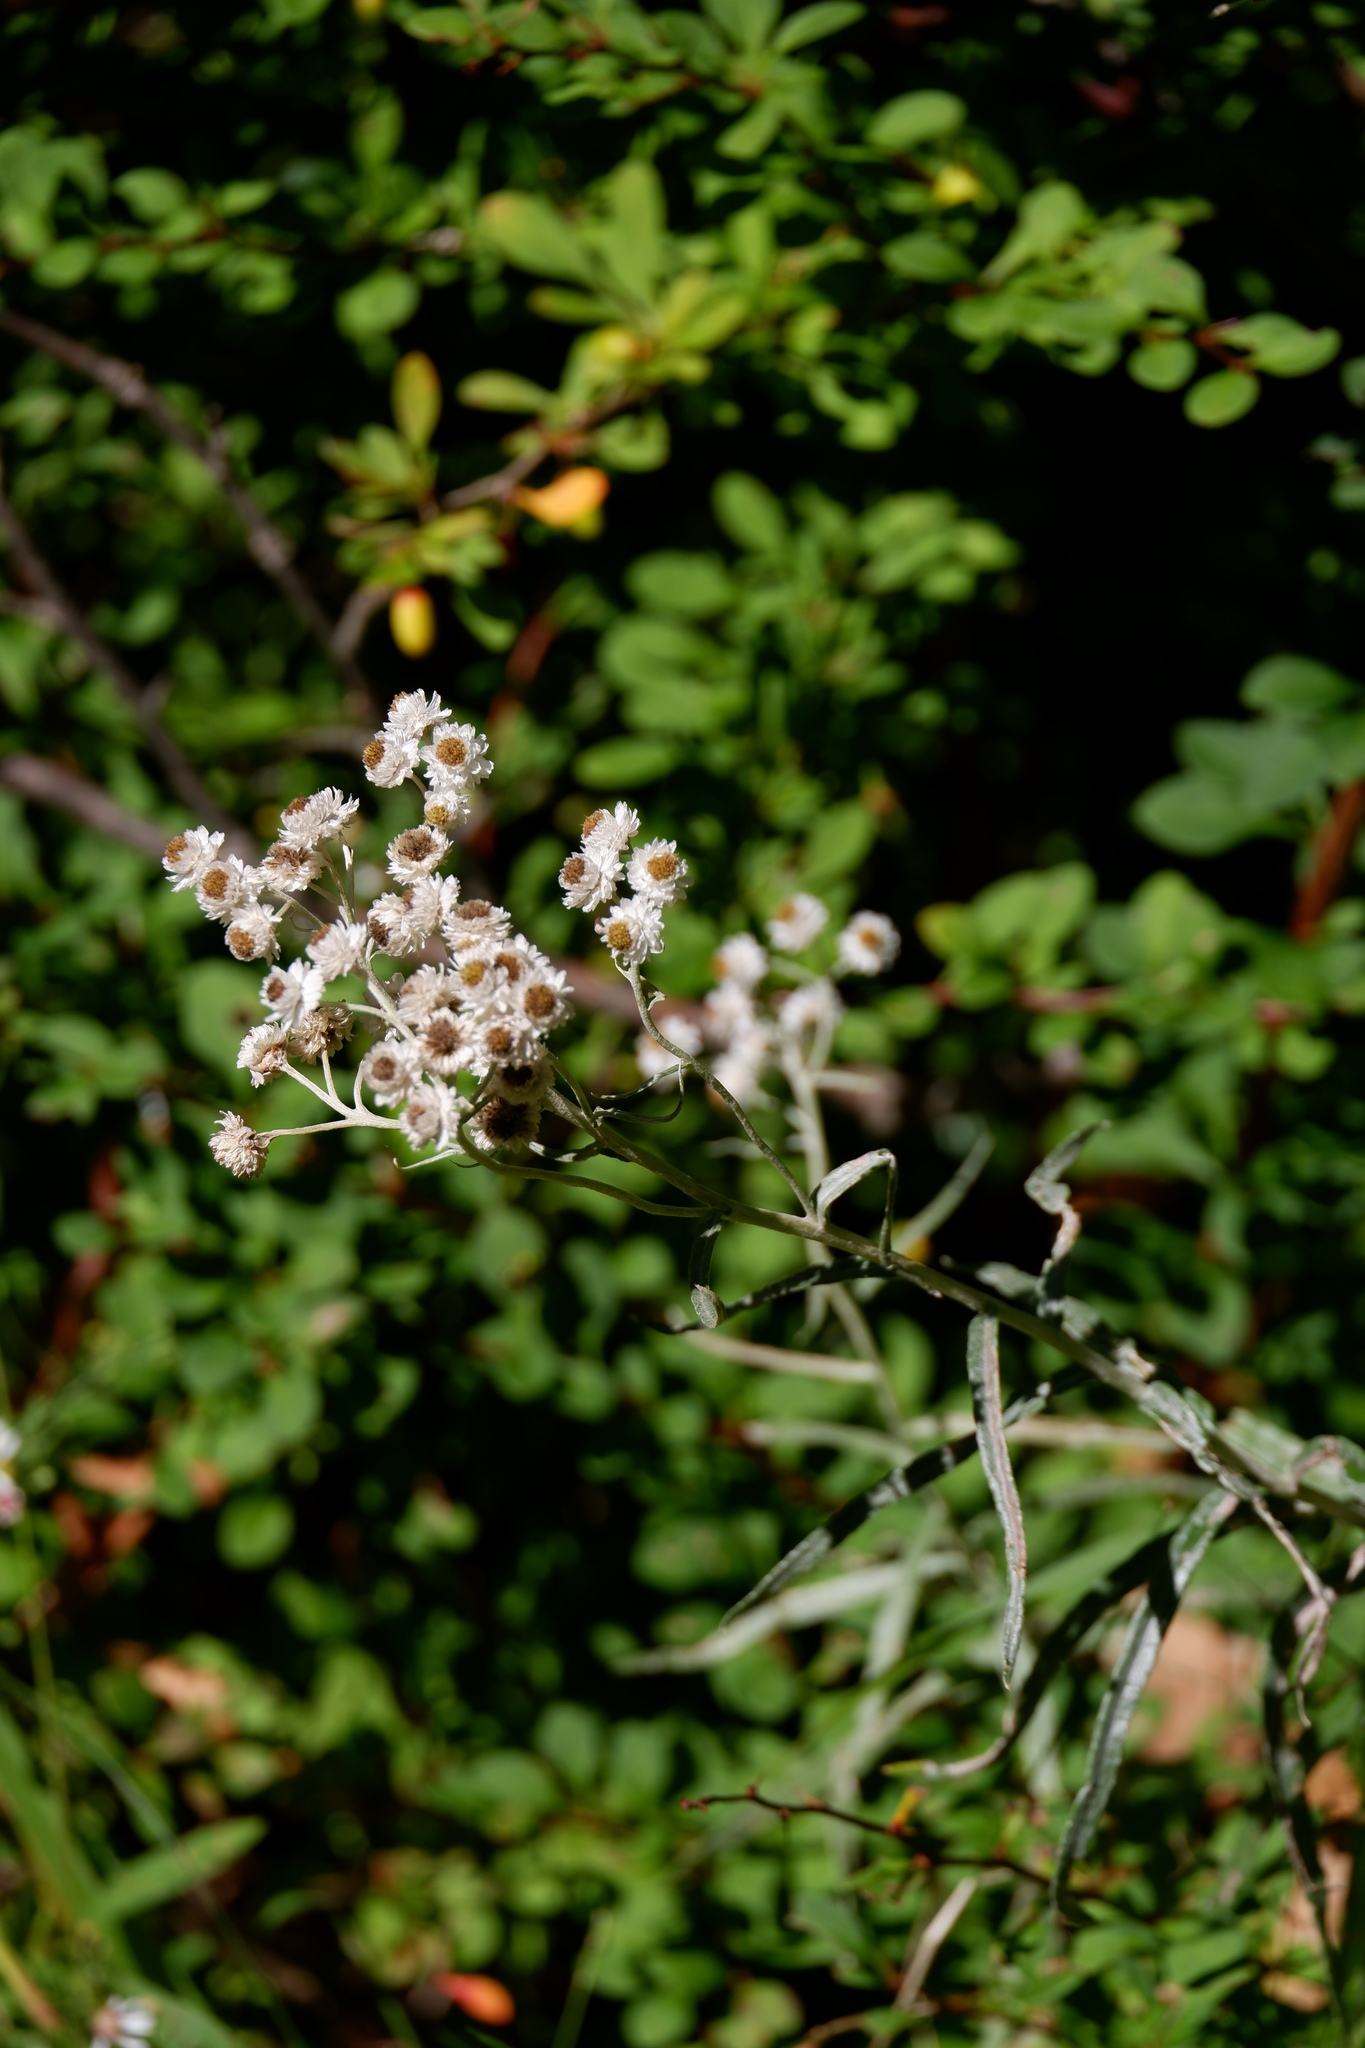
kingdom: Plantae
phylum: Tracheophyta
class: Magnoliopsida
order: Asterales
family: Asteraceae
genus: Anaphalis
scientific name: Anaphalis margaritacea
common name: Pearly everlasting
